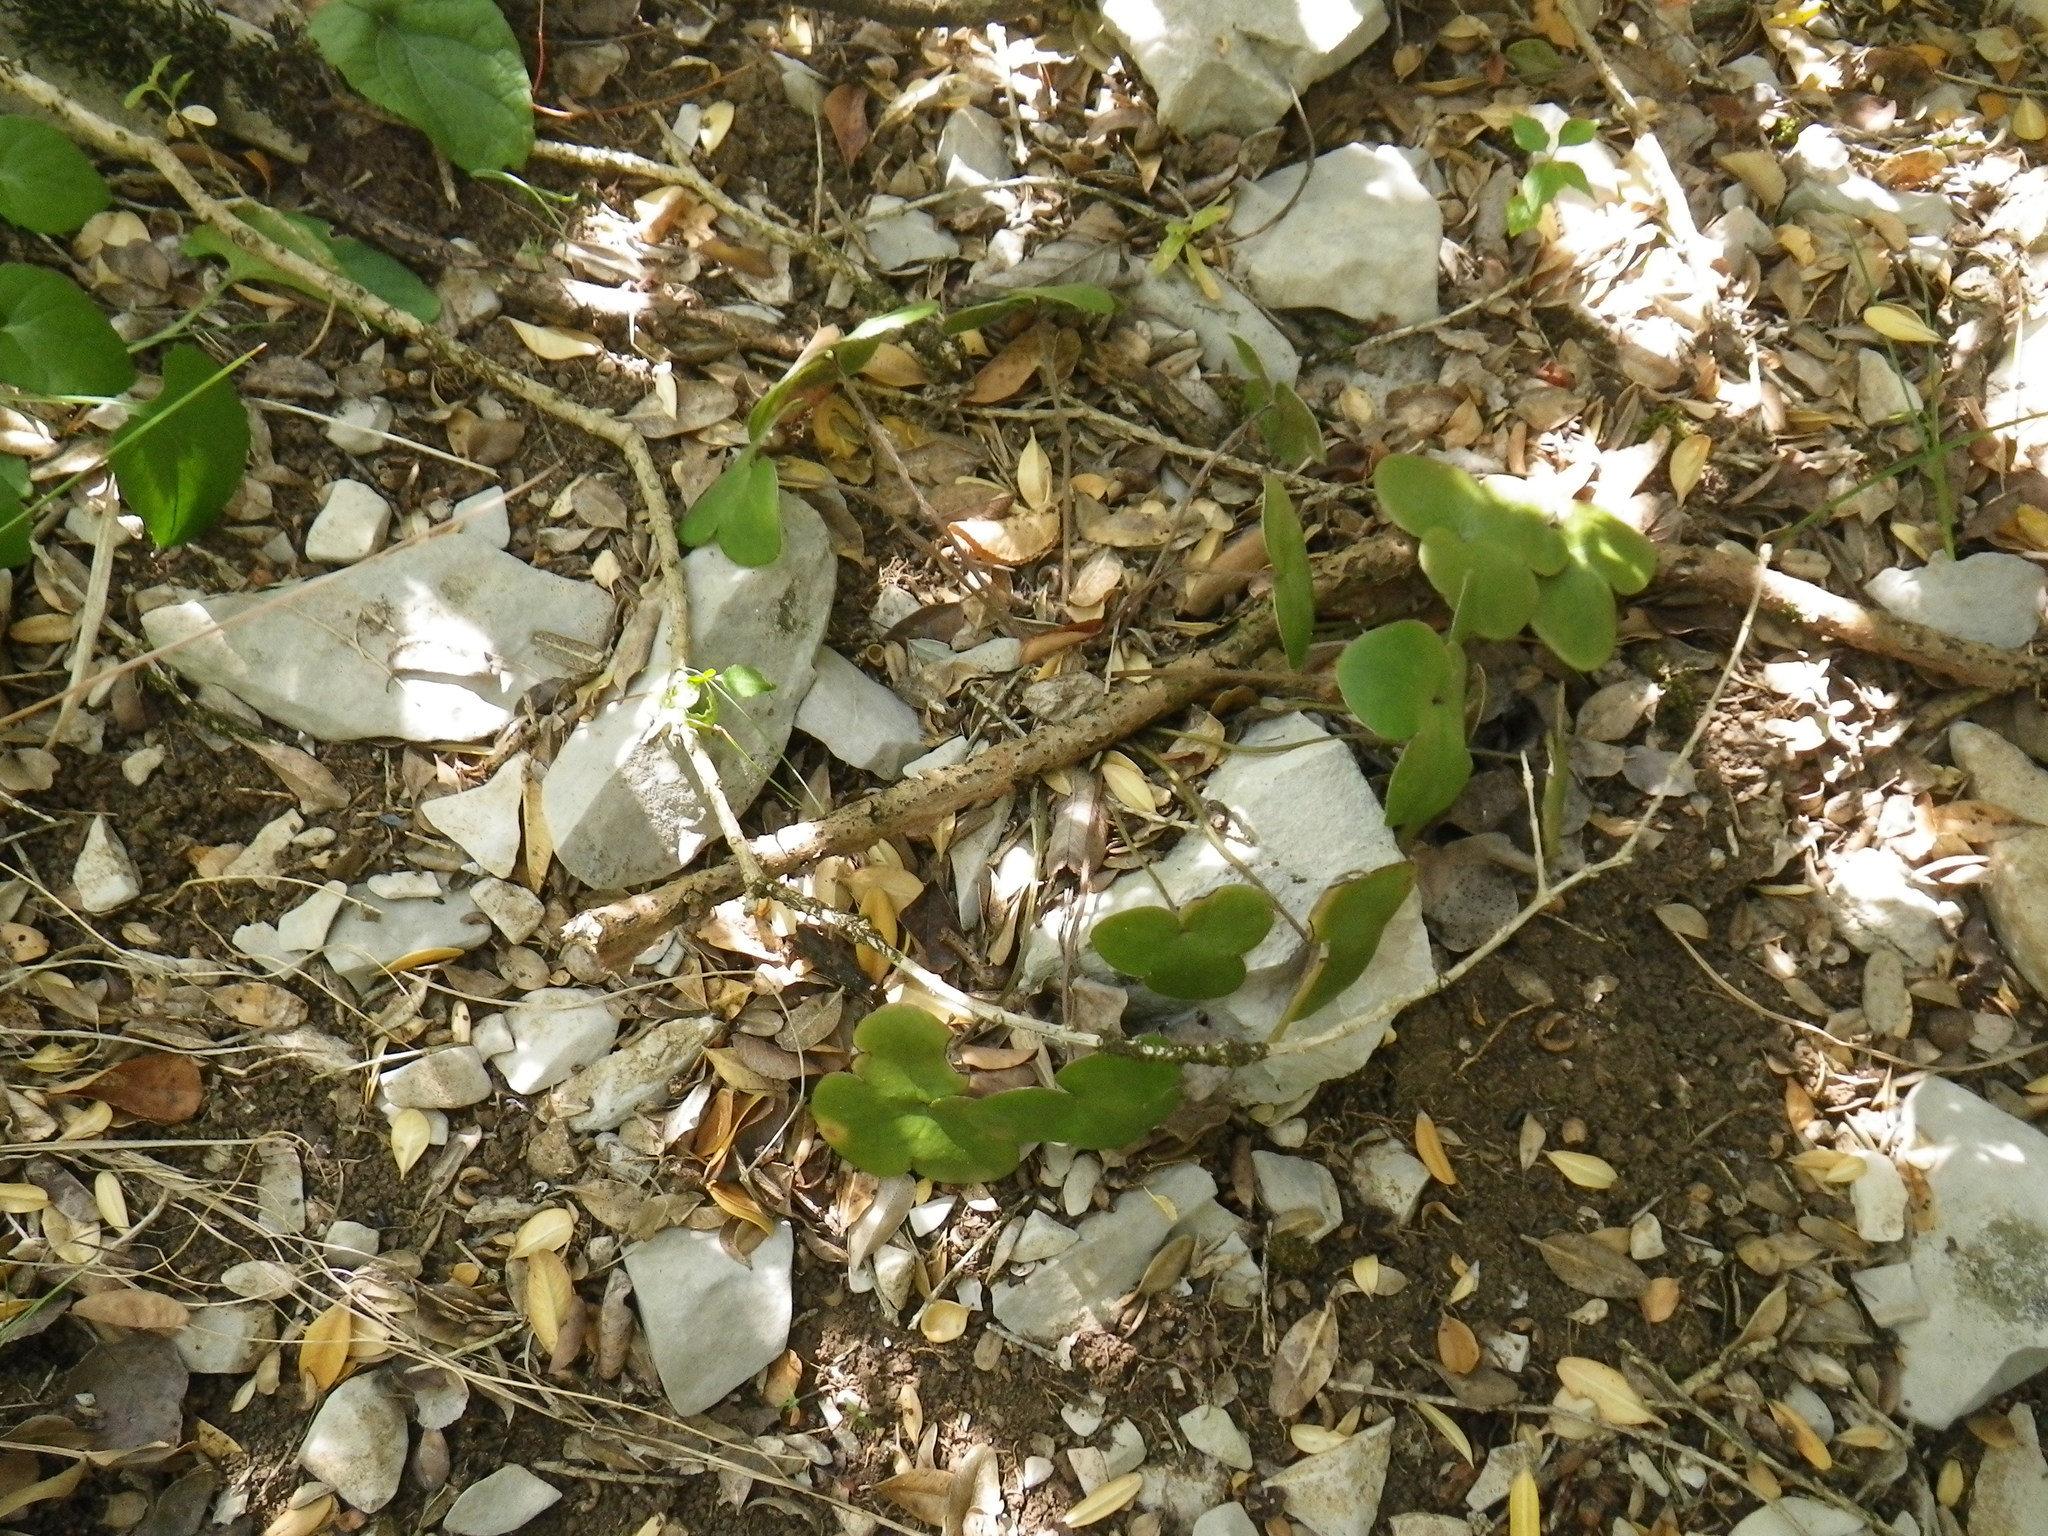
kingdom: Plantae
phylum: Tracheophyta
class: Magnoliopsida
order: Ranunculales
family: Ranunculaceae
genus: Hepatica
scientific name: Hepatica nobilis
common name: Liverleaf
